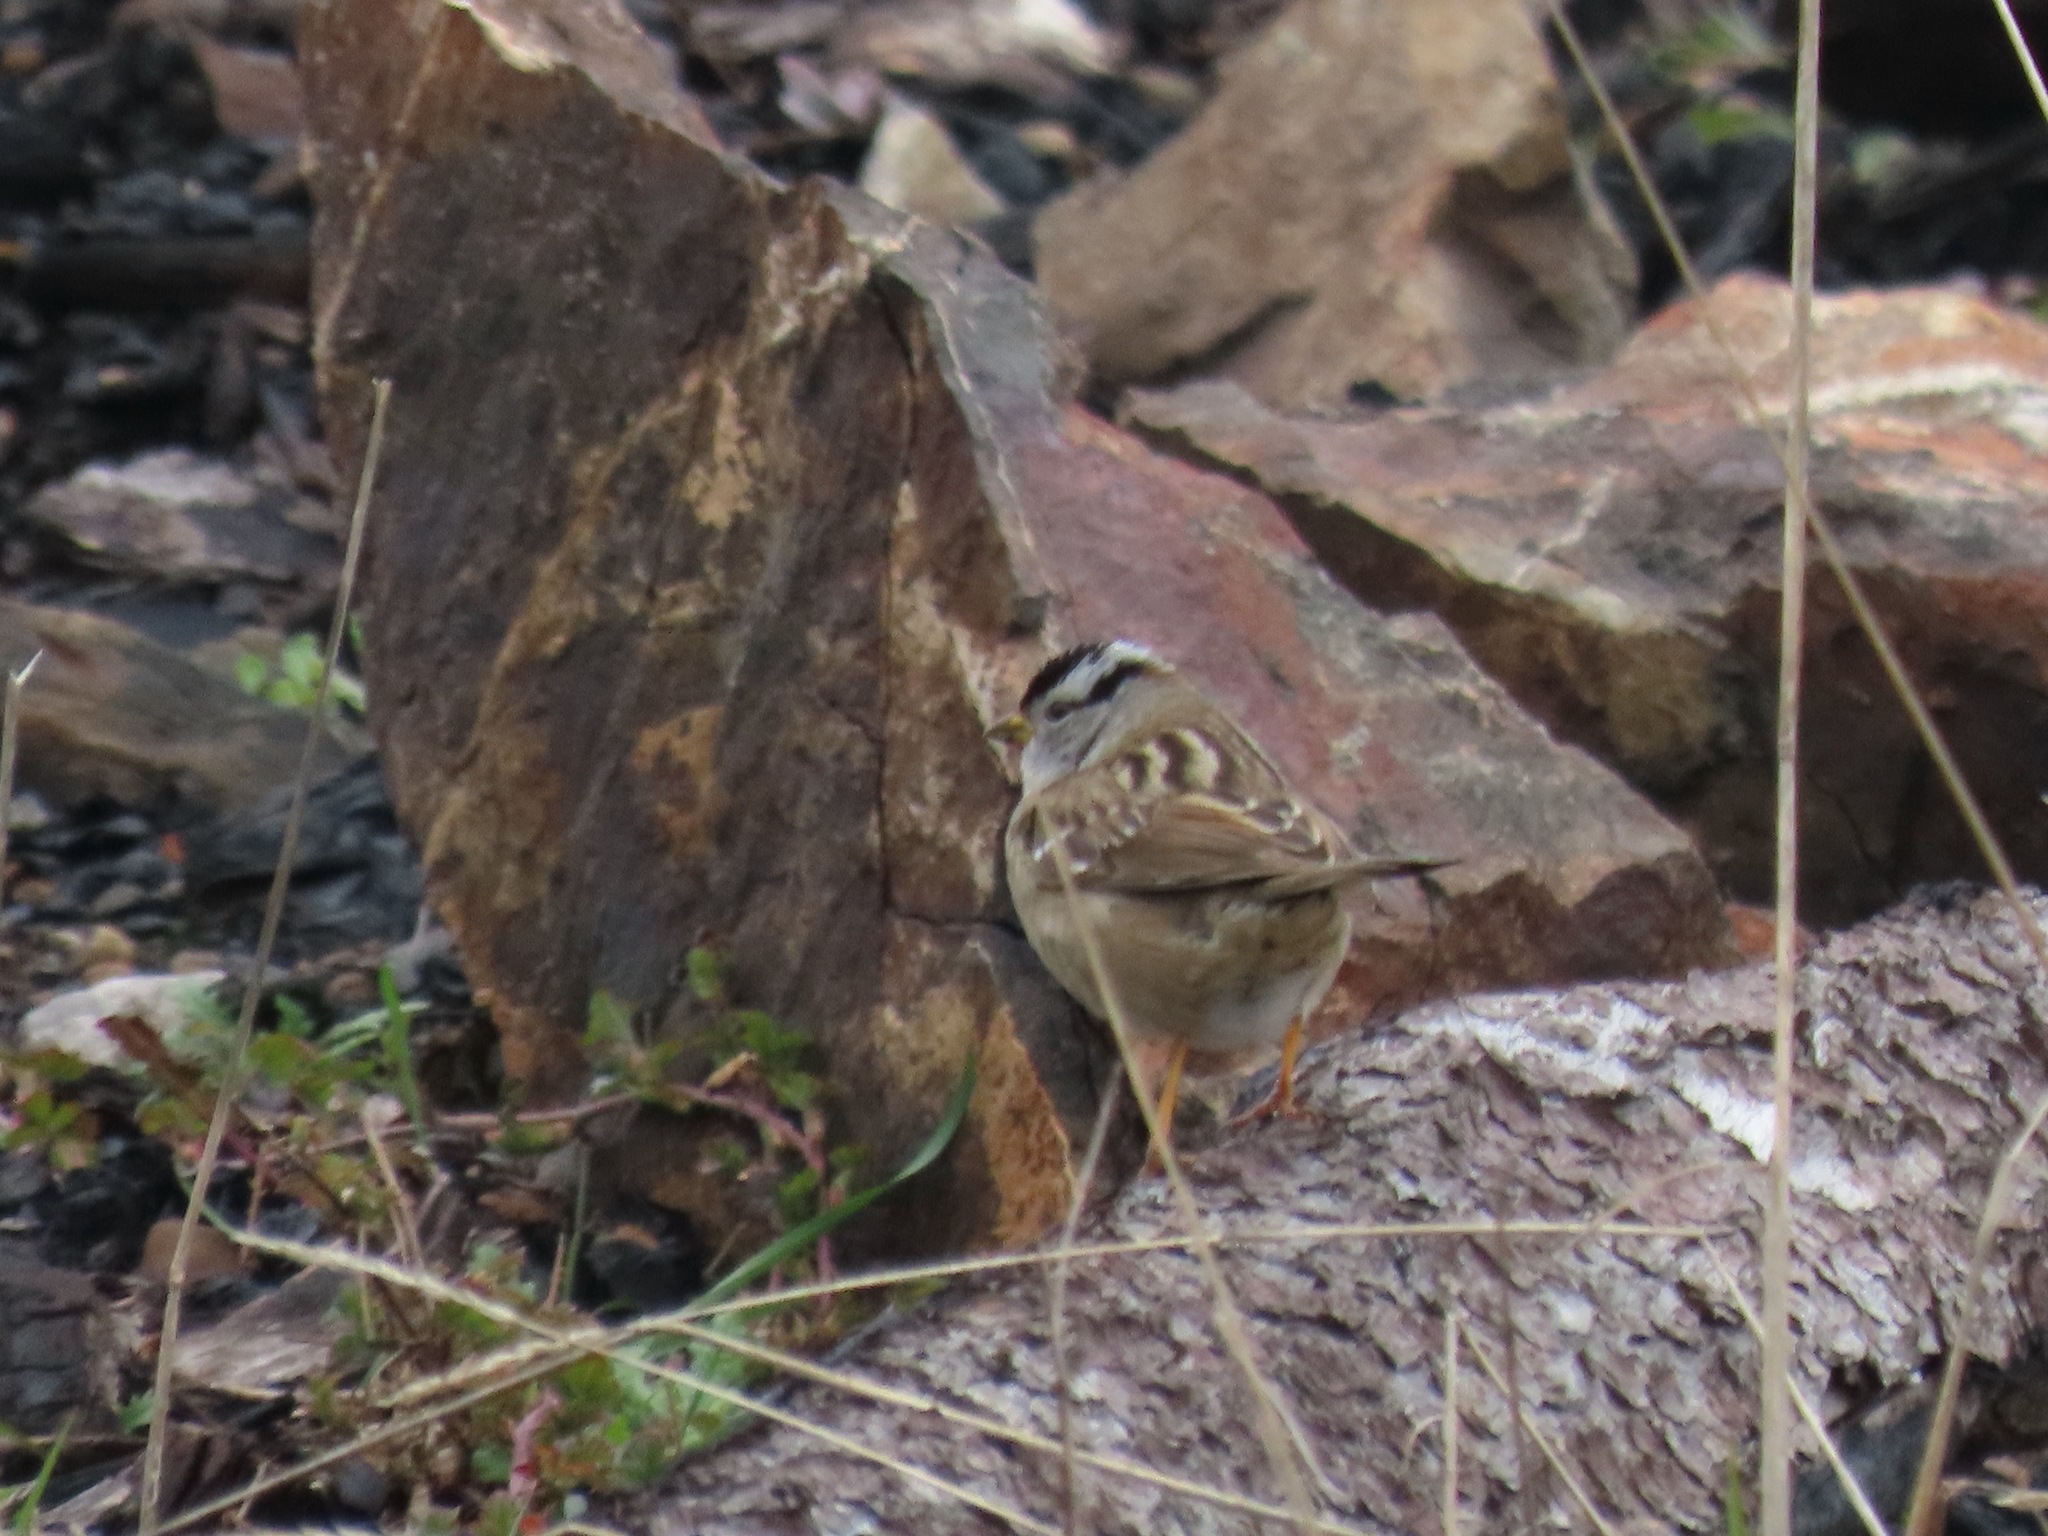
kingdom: Animalia
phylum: Chordata
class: Aves
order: Passeriformes
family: Passerellidae
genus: Zonotrichia
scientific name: Zonotrichia leucophrys
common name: White-crowned sparrow
